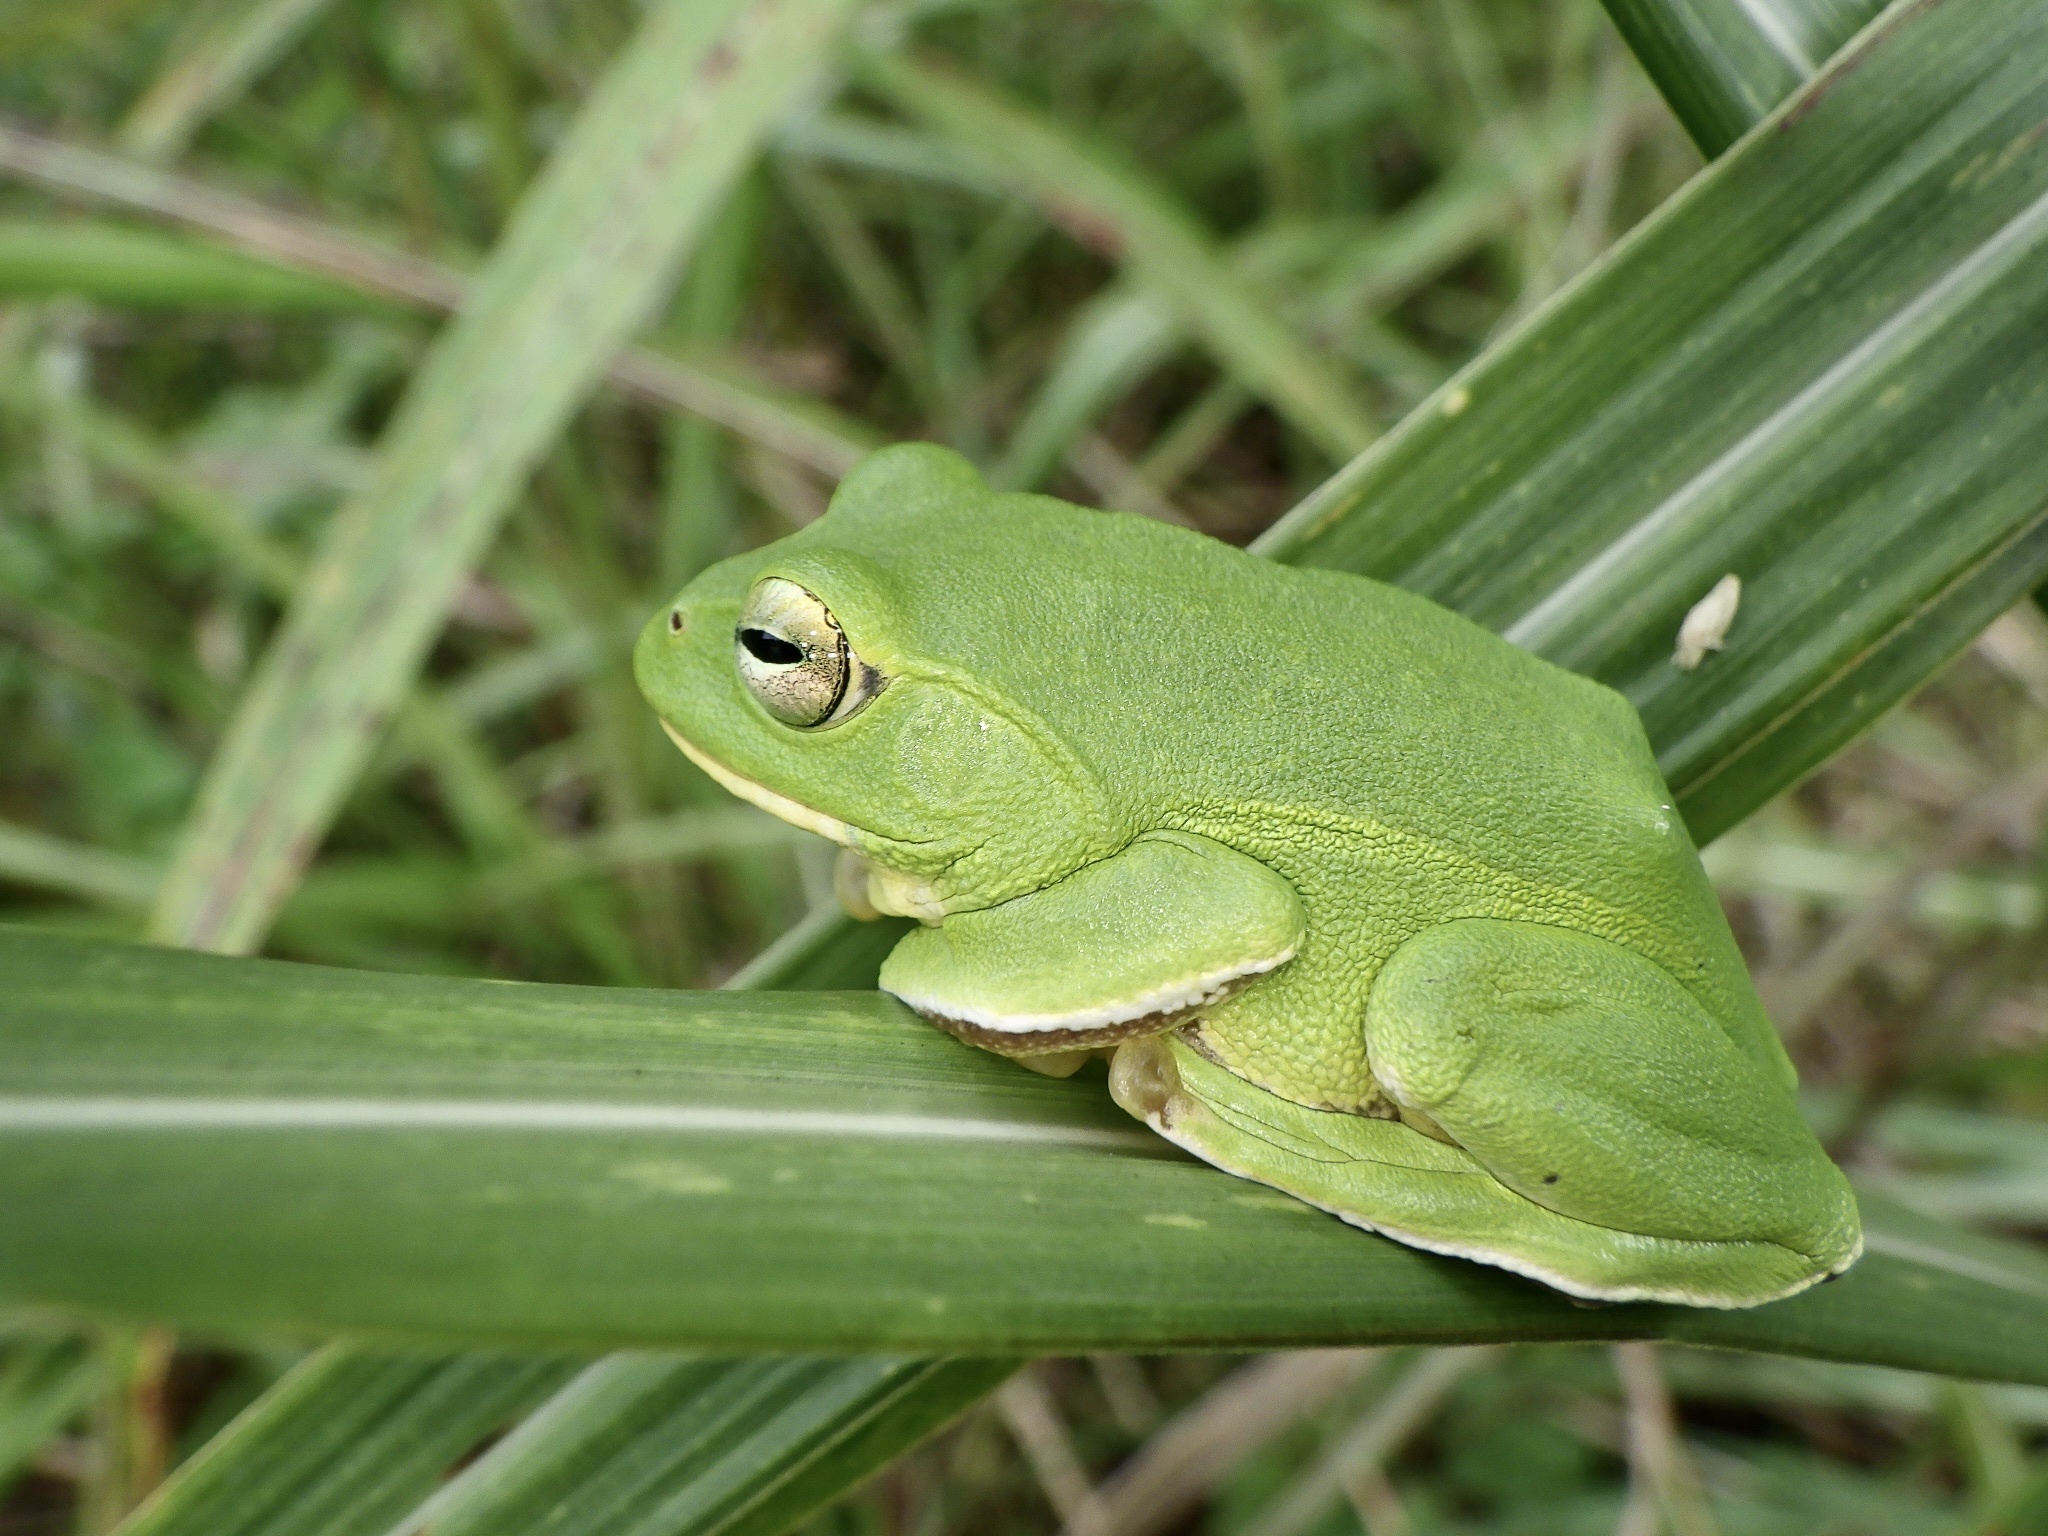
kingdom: Animalia
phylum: Chordata
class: Amphibia
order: Anura
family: Rhacophoridae
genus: Zhangixalus
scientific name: Zhangixalus schlegelii
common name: Japanese gliding frog
